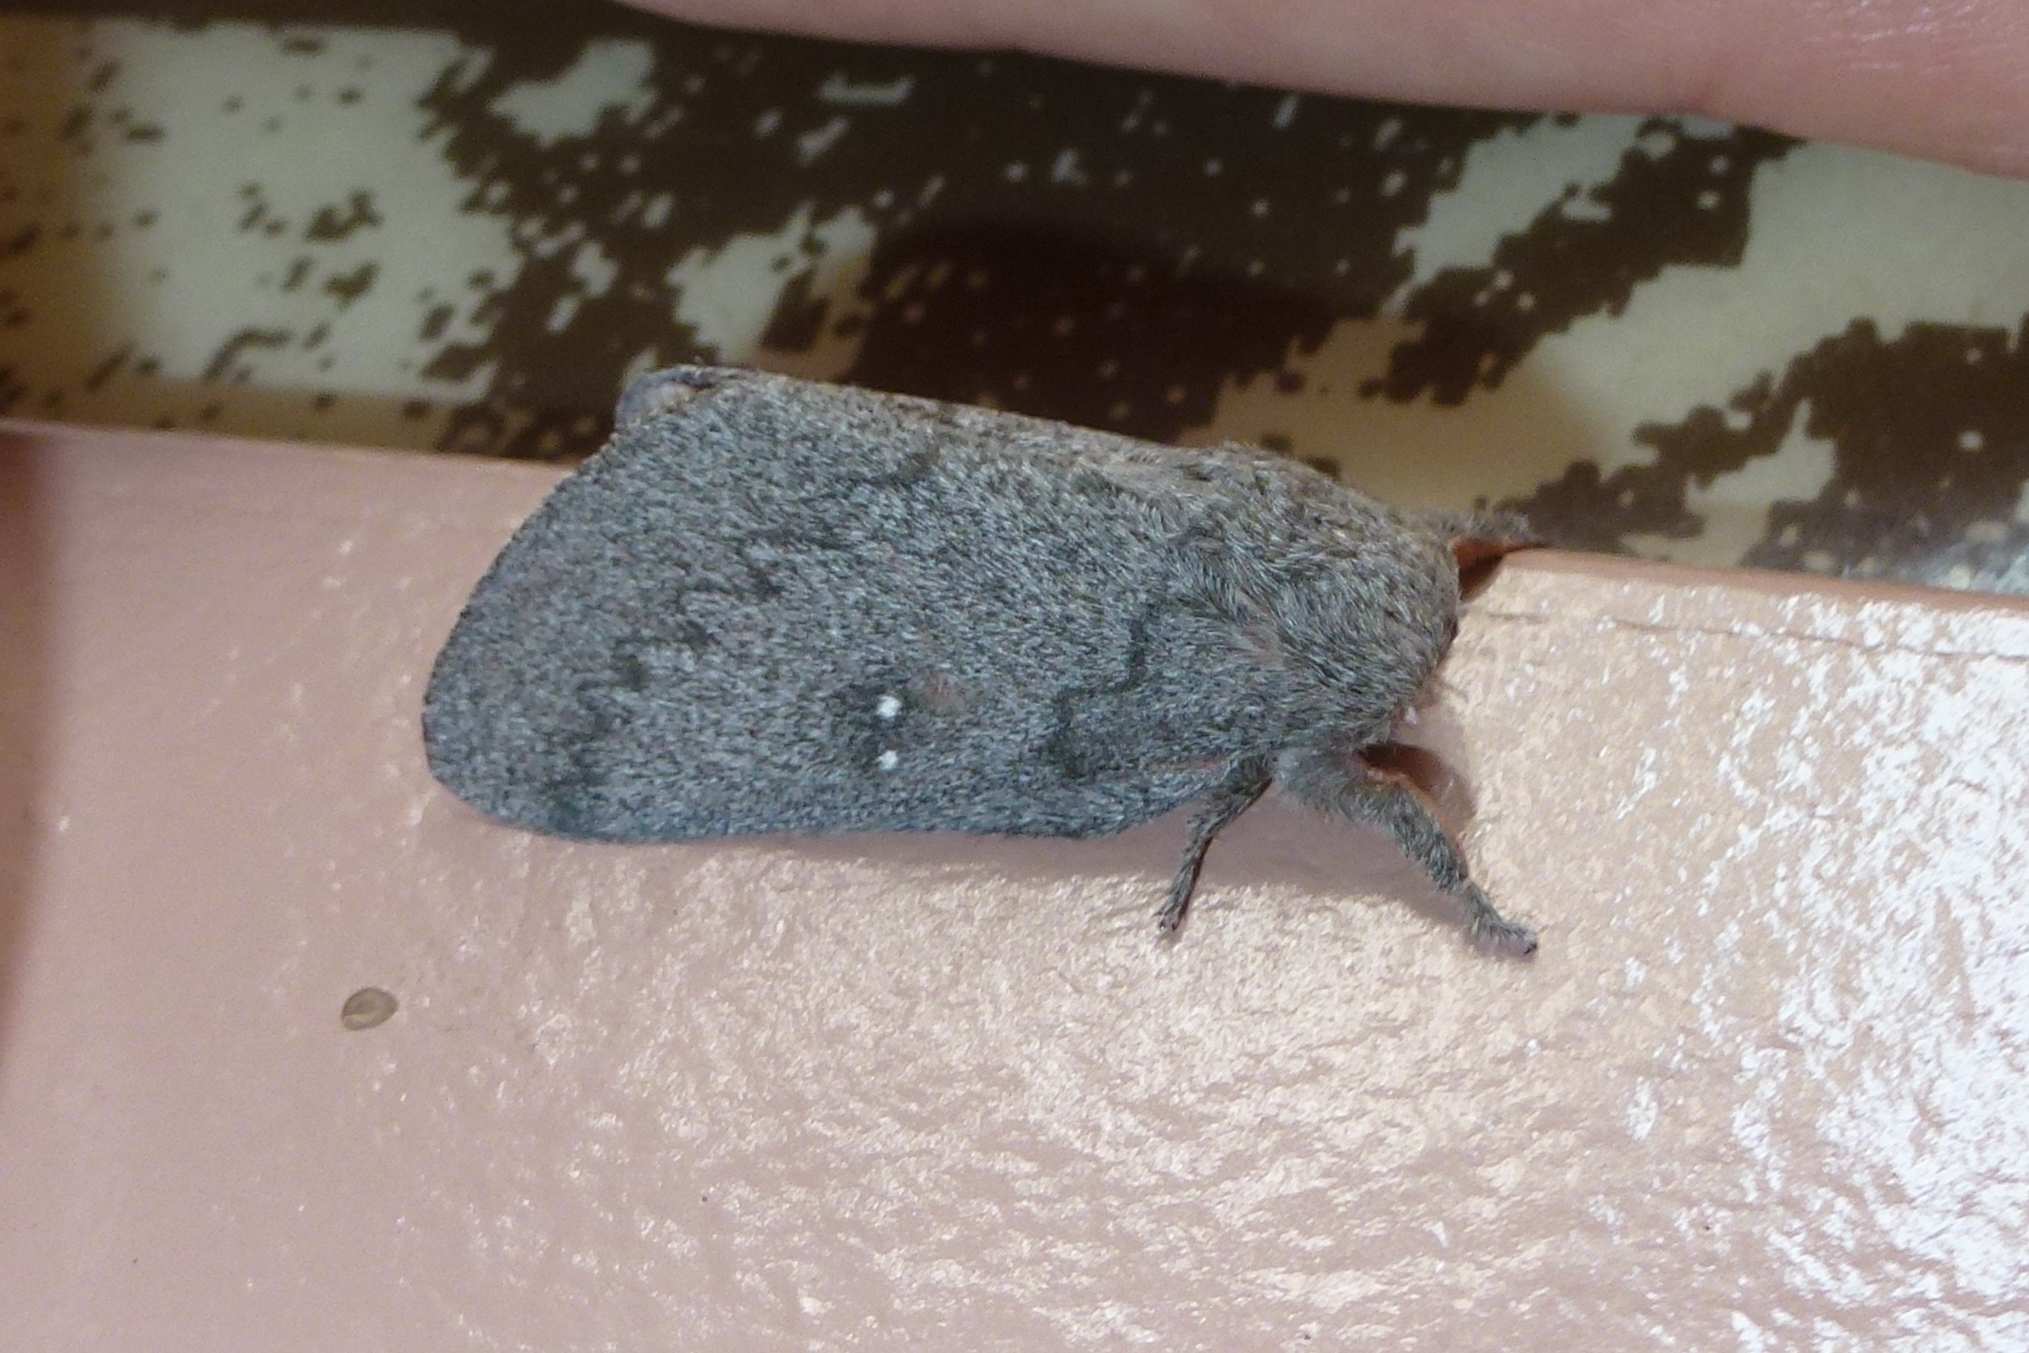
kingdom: Animalia
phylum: Arthropoda
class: Insecta
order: Lepidoptera
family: Saturniidae
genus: Syssphinx
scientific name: Syssphinx hubbardi
